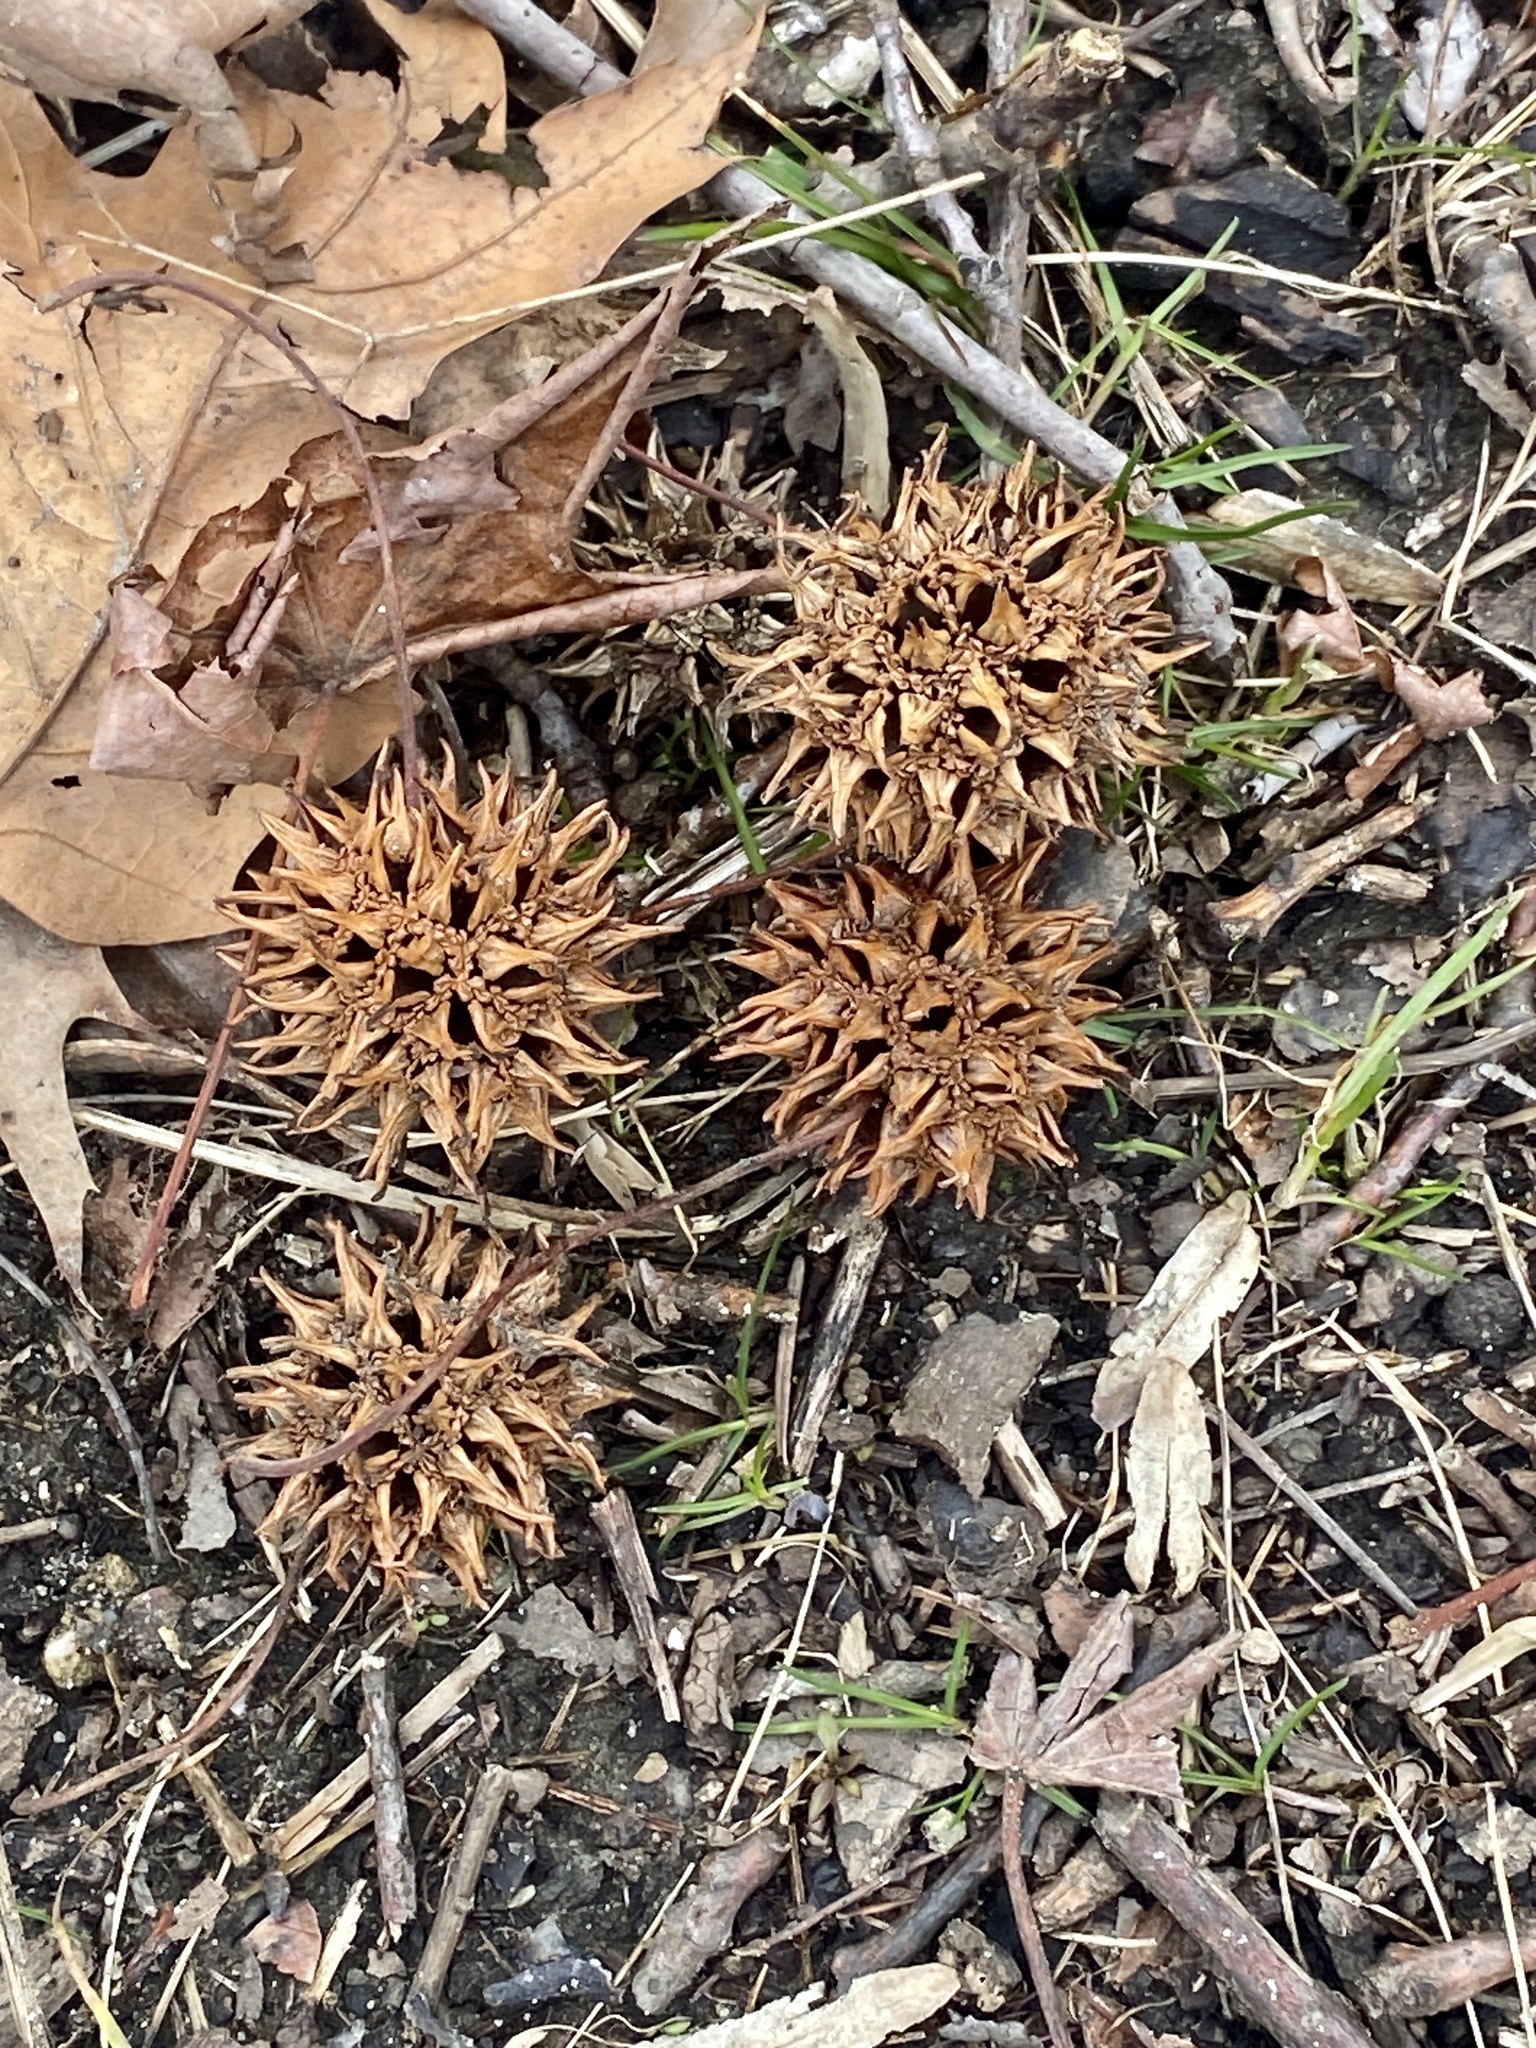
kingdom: Plantae
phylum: Tracheophyta
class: Magnoliopsida
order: Saxifragales
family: Altingiaceae
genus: Liquidambar
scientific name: Liquidambar styraciflua
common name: Sweet gum
